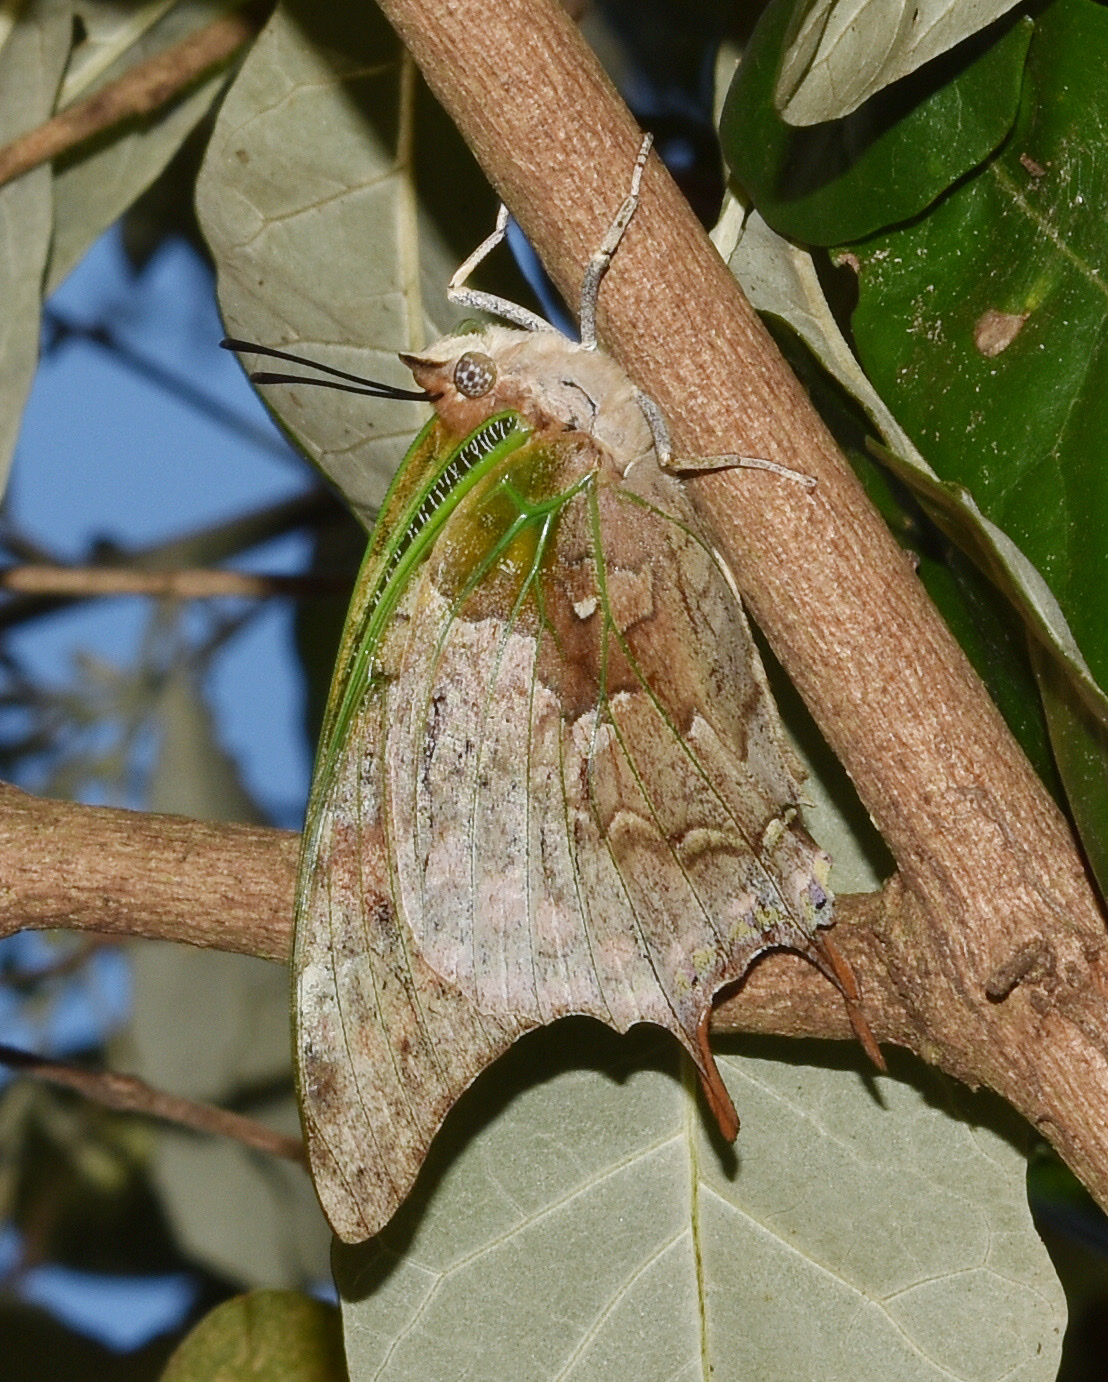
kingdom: Animalia
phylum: Arthropoda
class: Insecta
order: Lepidoptera
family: Nymphalidae
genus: Charaxes
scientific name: Charaxes candiope
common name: Green-veined charaxes
